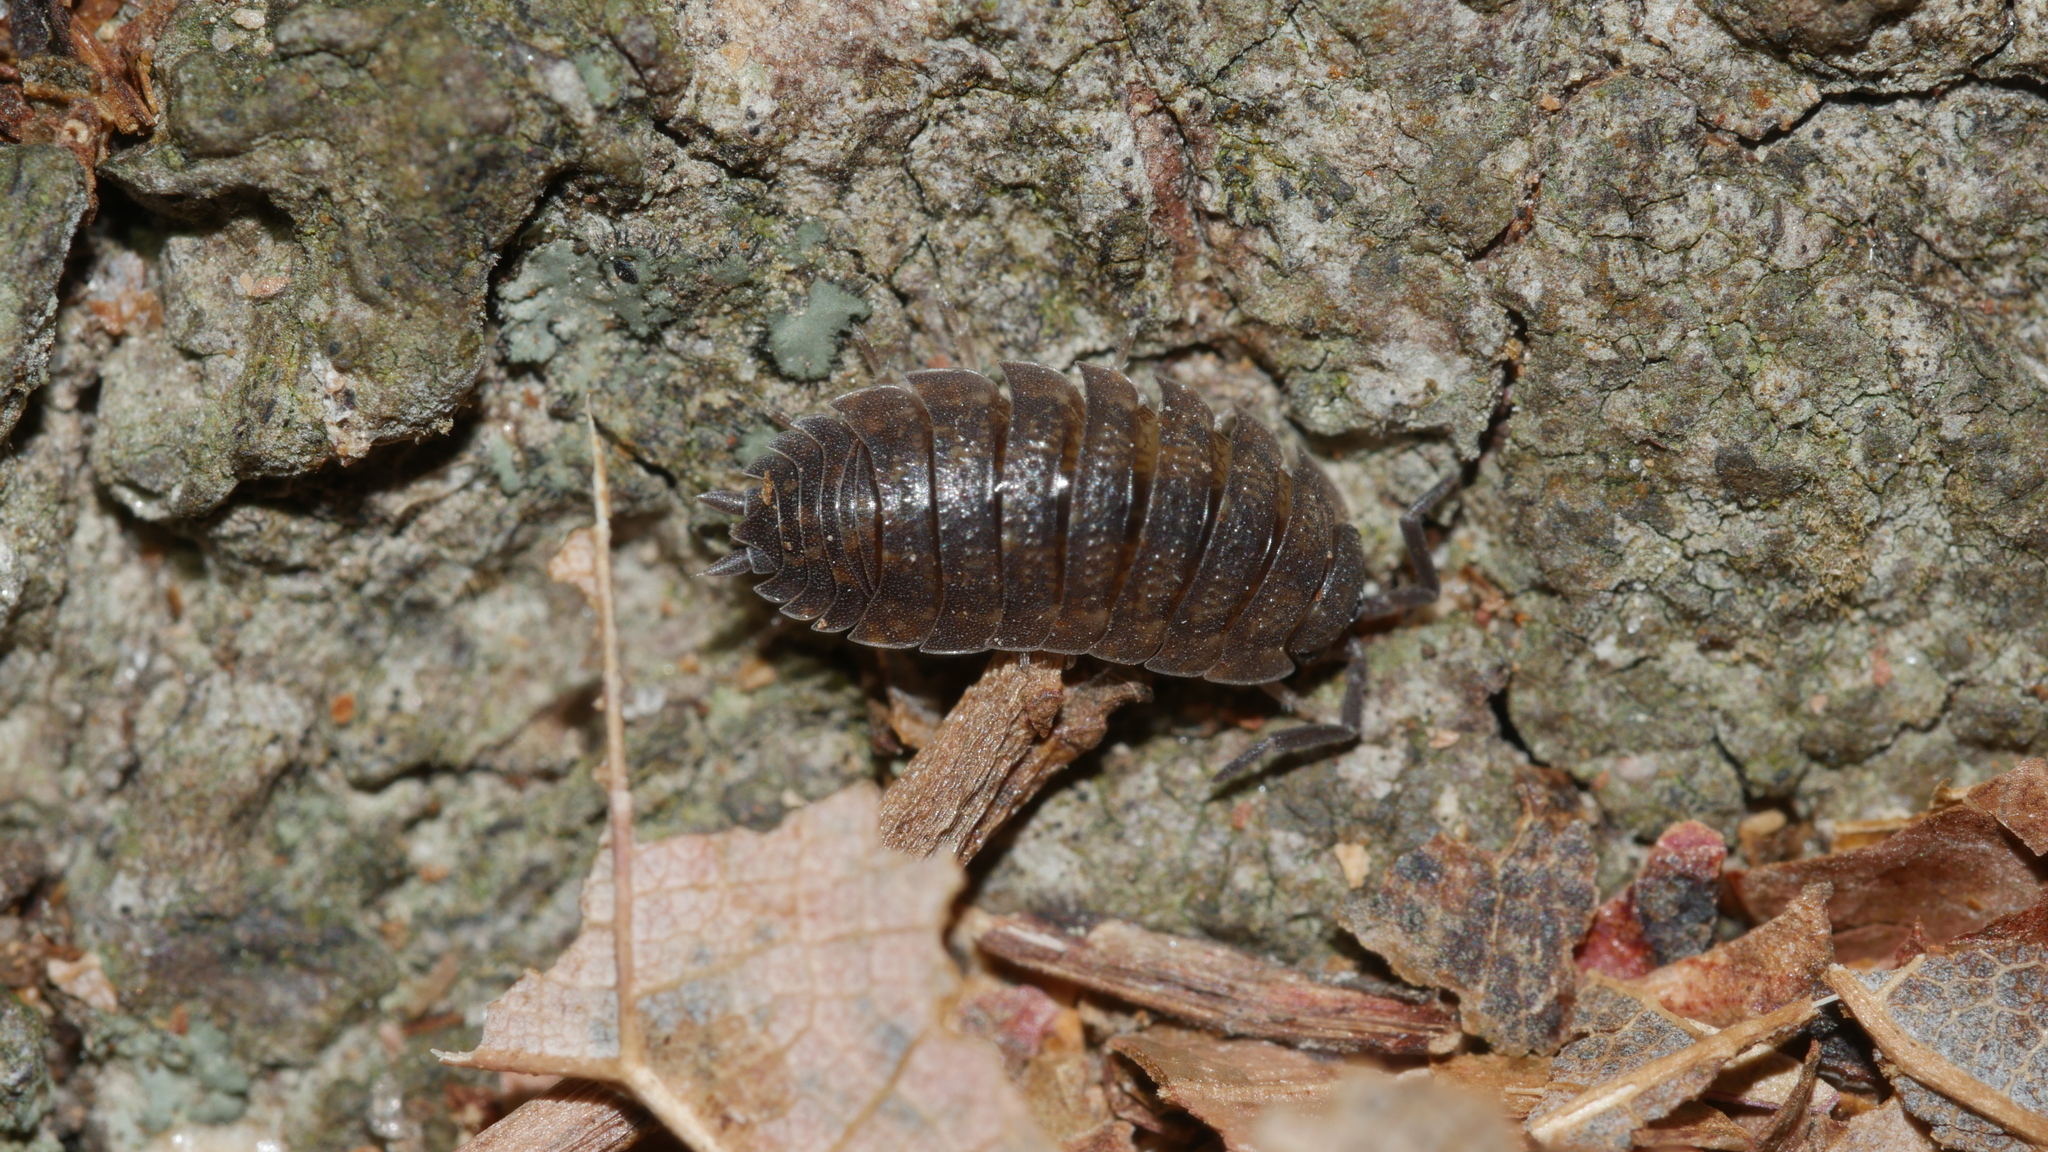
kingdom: Animalia
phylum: Arthropoda
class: Malacostraca
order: Isopoda
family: Porcellionidae
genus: Porcellio
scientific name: Porcellio scaber
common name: Common rough woodlouse
